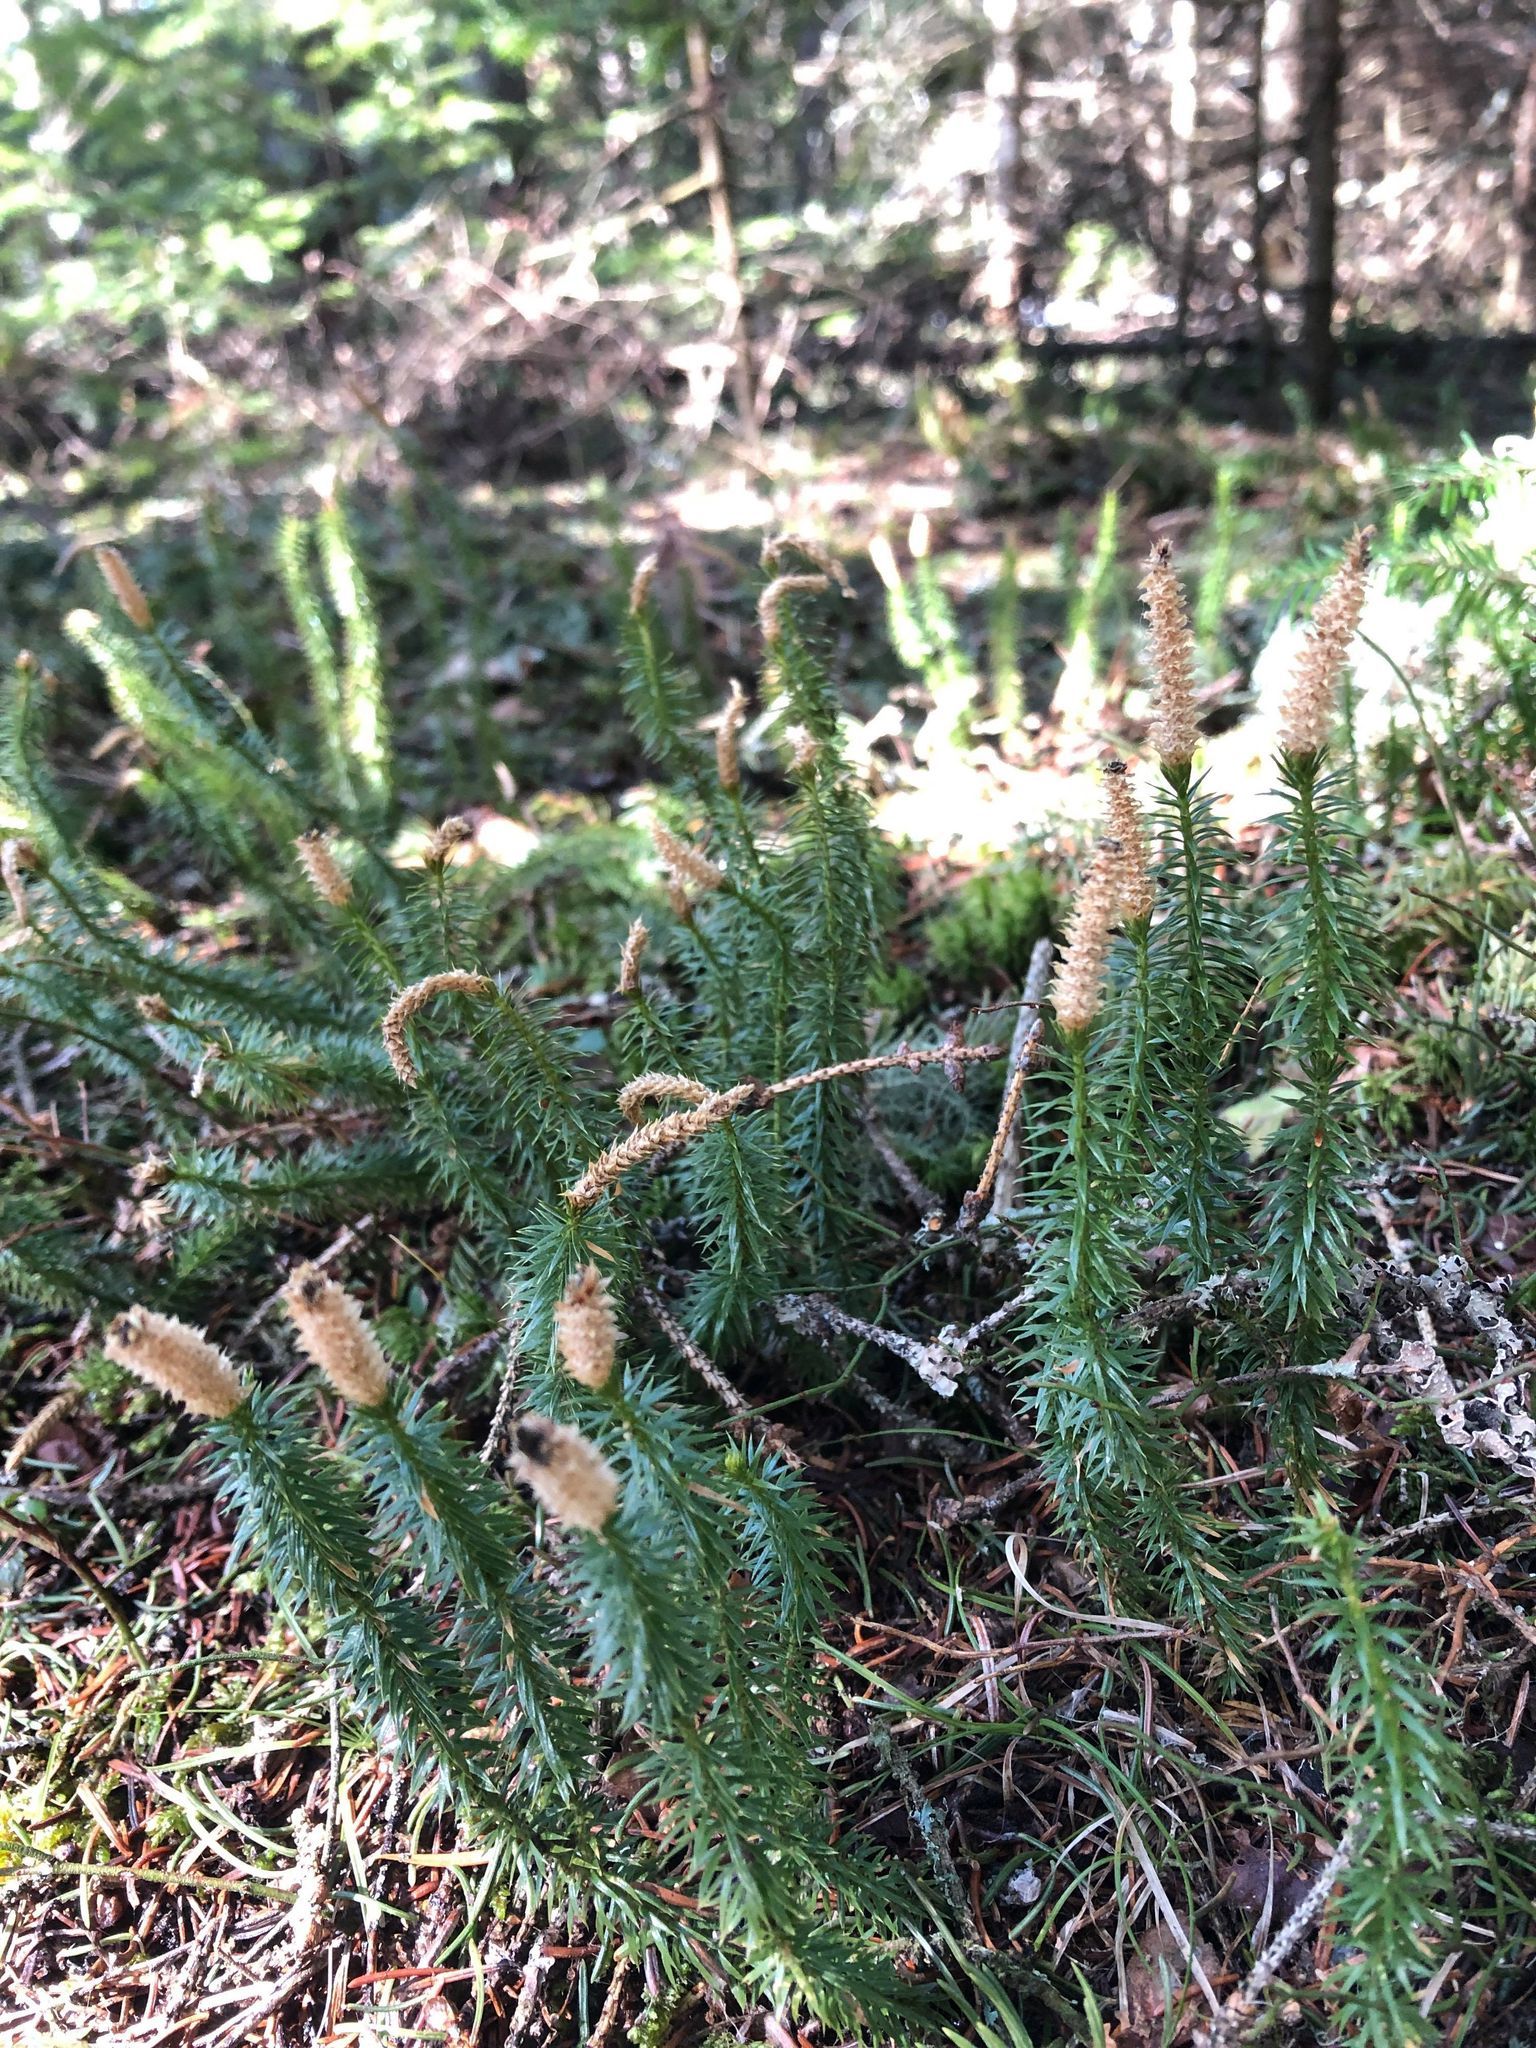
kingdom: Plantae
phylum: Tracheophyta
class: Lycopodiopsida
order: Lycopodiales
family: Lycopodiaceae
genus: Spinulum
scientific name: Spinulum annotinum
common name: Interrupted club-moss
